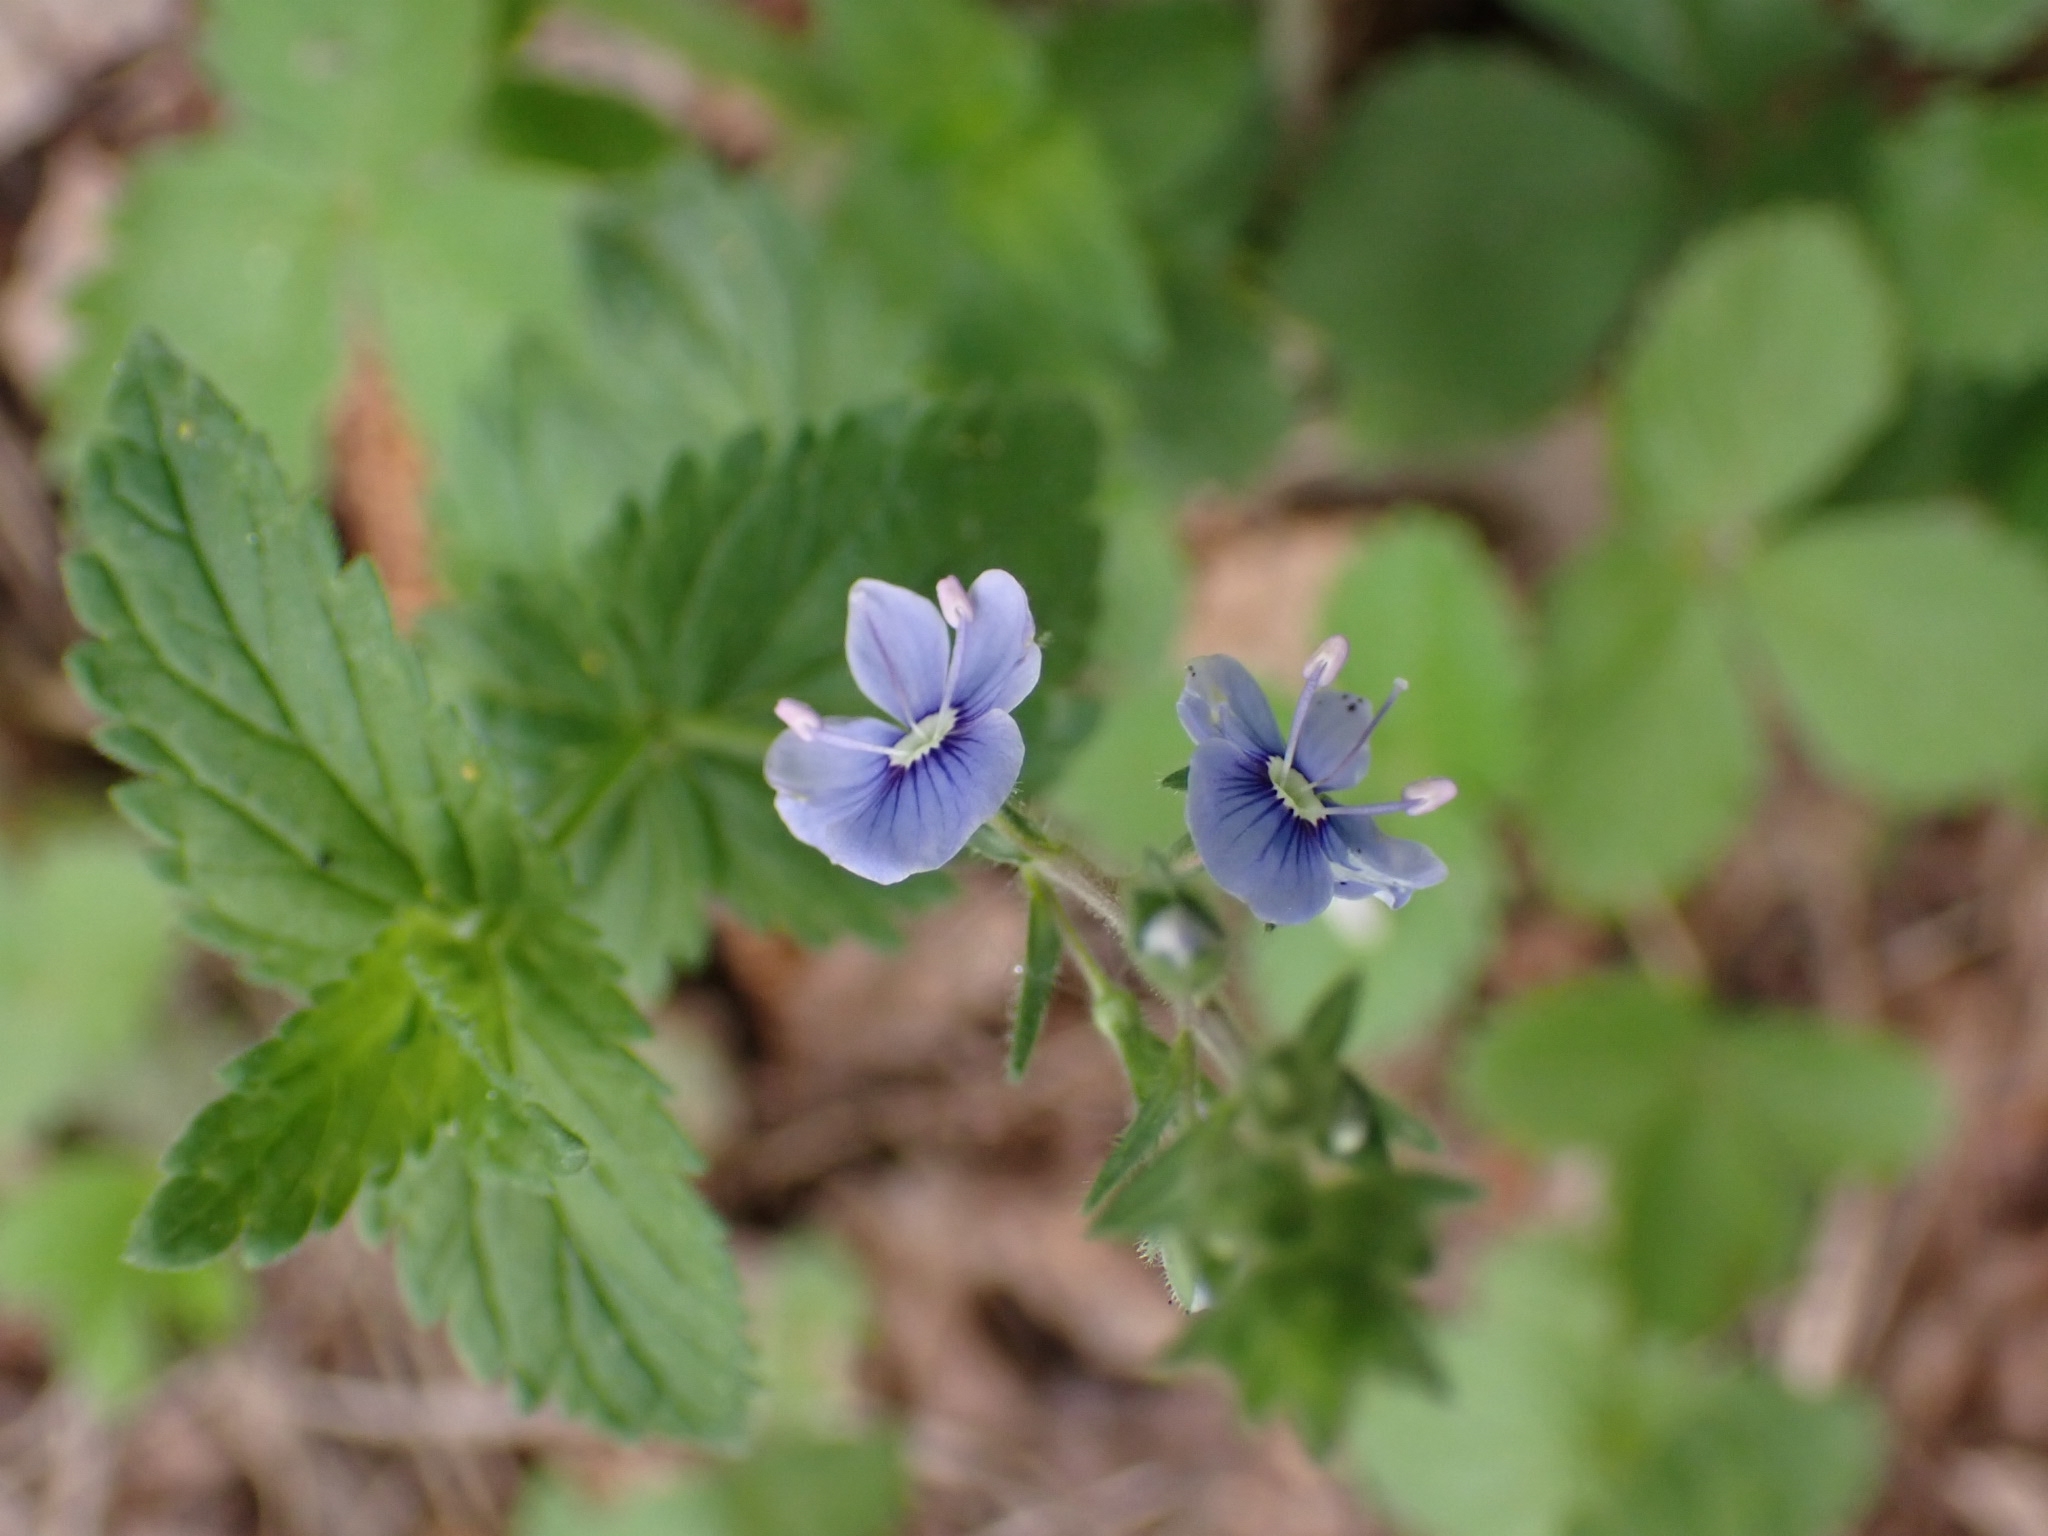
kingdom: Plantae
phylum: Tracheophyta
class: Magnoliopsida
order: Lamiales
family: Plantaginaceae
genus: Veronica
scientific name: Veronica chamaedrys
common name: Germander speedwell
